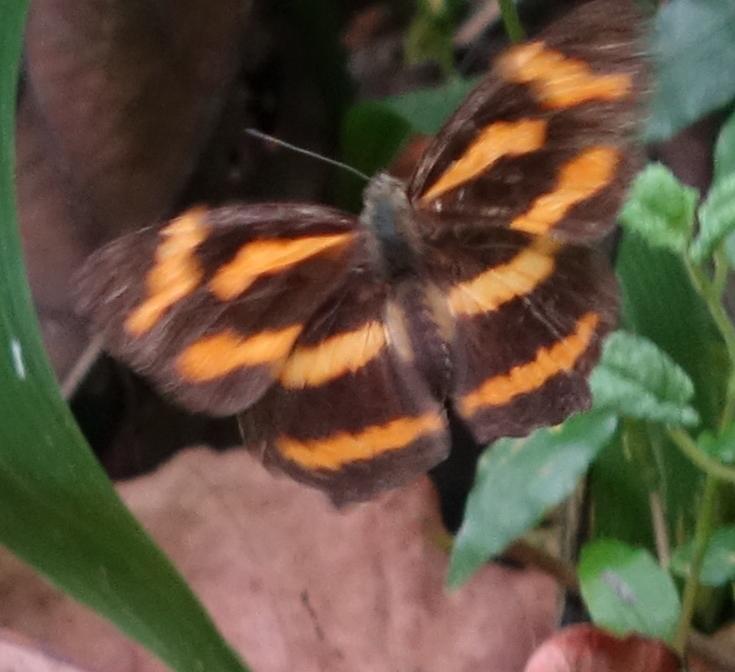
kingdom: Animalia
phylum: Arthropoda
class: Insecta
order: Lepidoptera
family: Nymphalidae
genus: Symbrenthia
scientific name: Symbrenthia brabira
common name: Yellow jester
